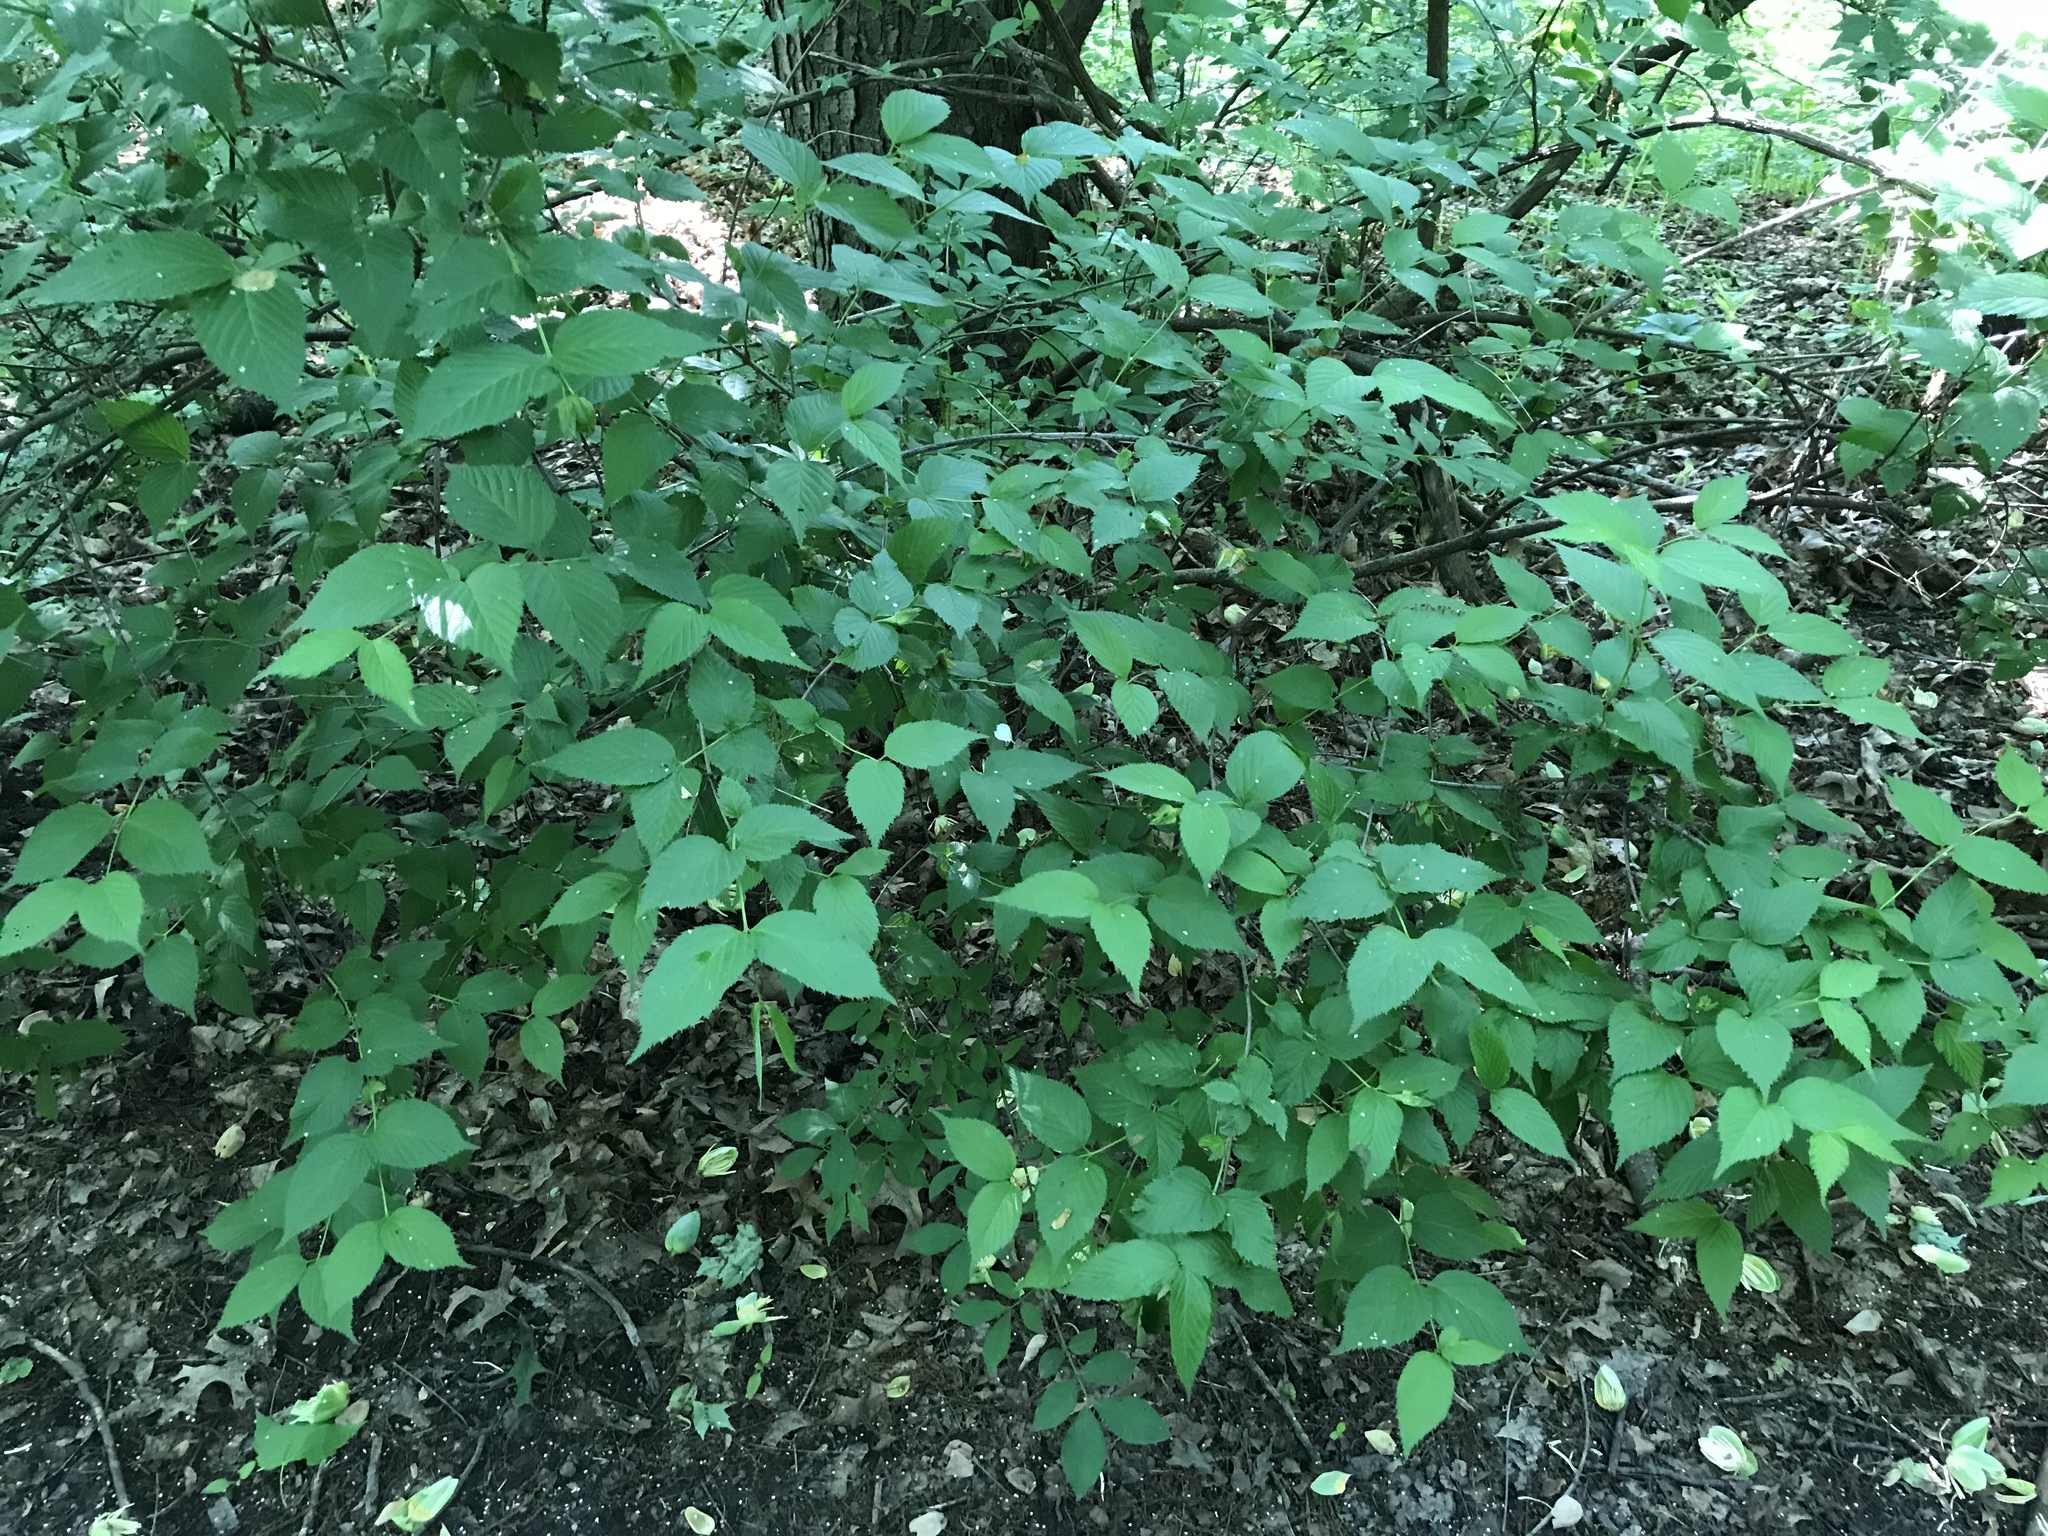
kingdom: Plantae
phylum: Tracheophyta
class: Magnoliopsida
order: Rosales
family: Rosaceae
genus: Rhodotypos
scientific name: Rhodotypos scandens
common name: Jetbead
